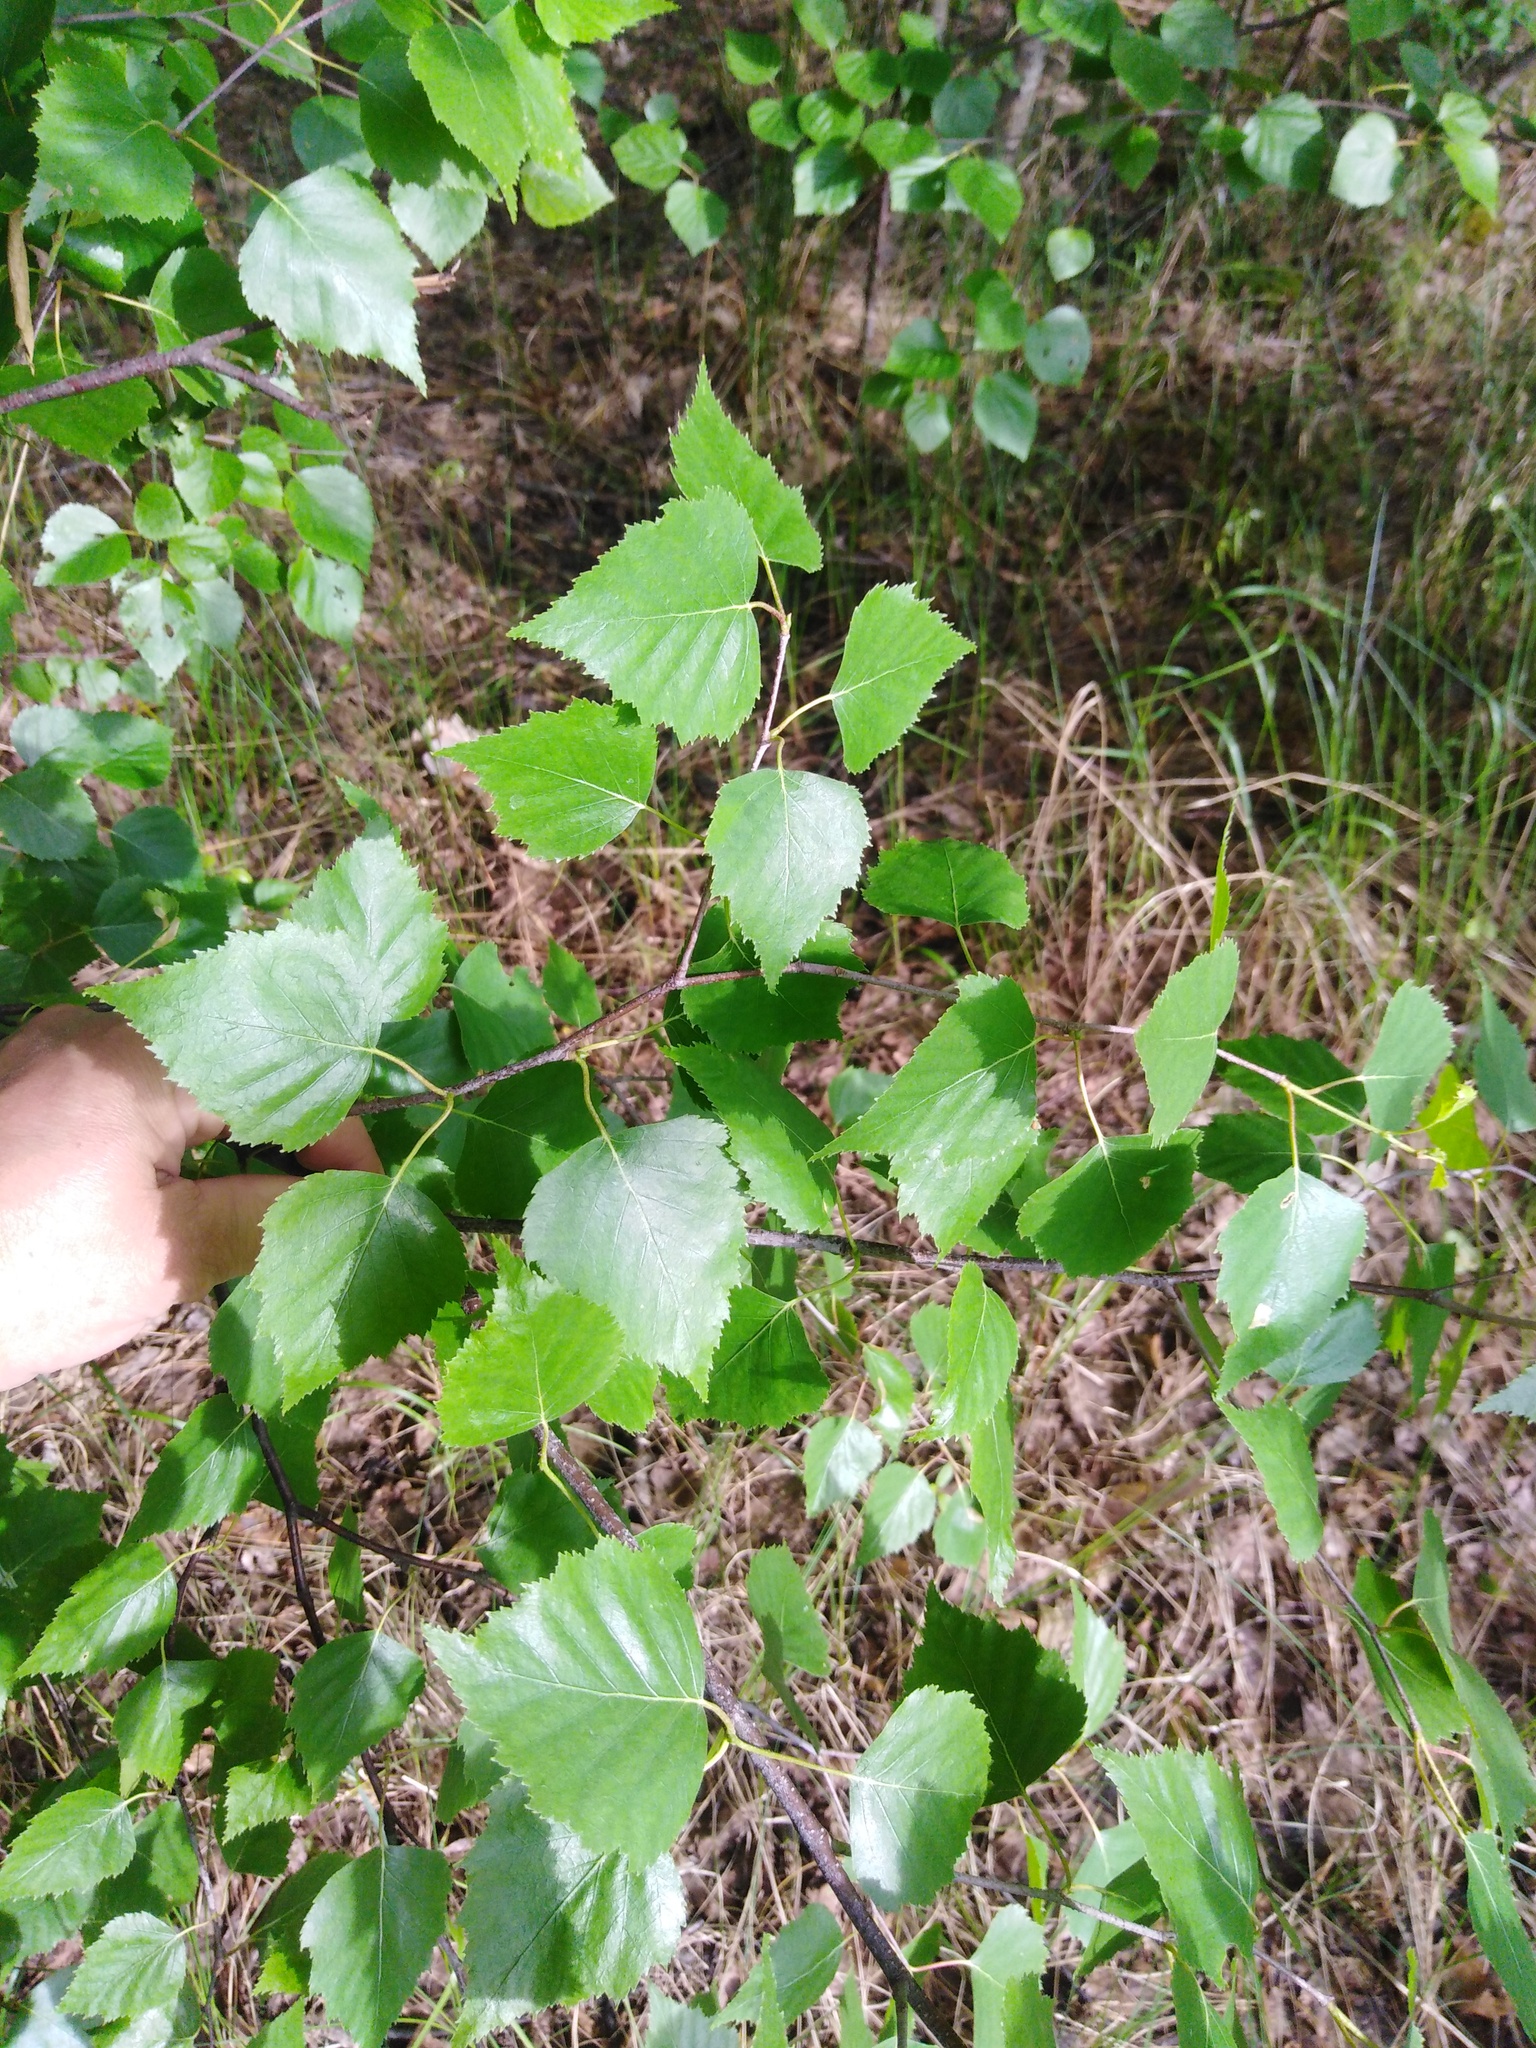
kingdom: Plantae
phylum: Tracheophyta
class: Magnoliopsida
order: Fagales
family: Betulaceae
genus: Betula
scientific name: Betula pendula
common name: Silver birch
